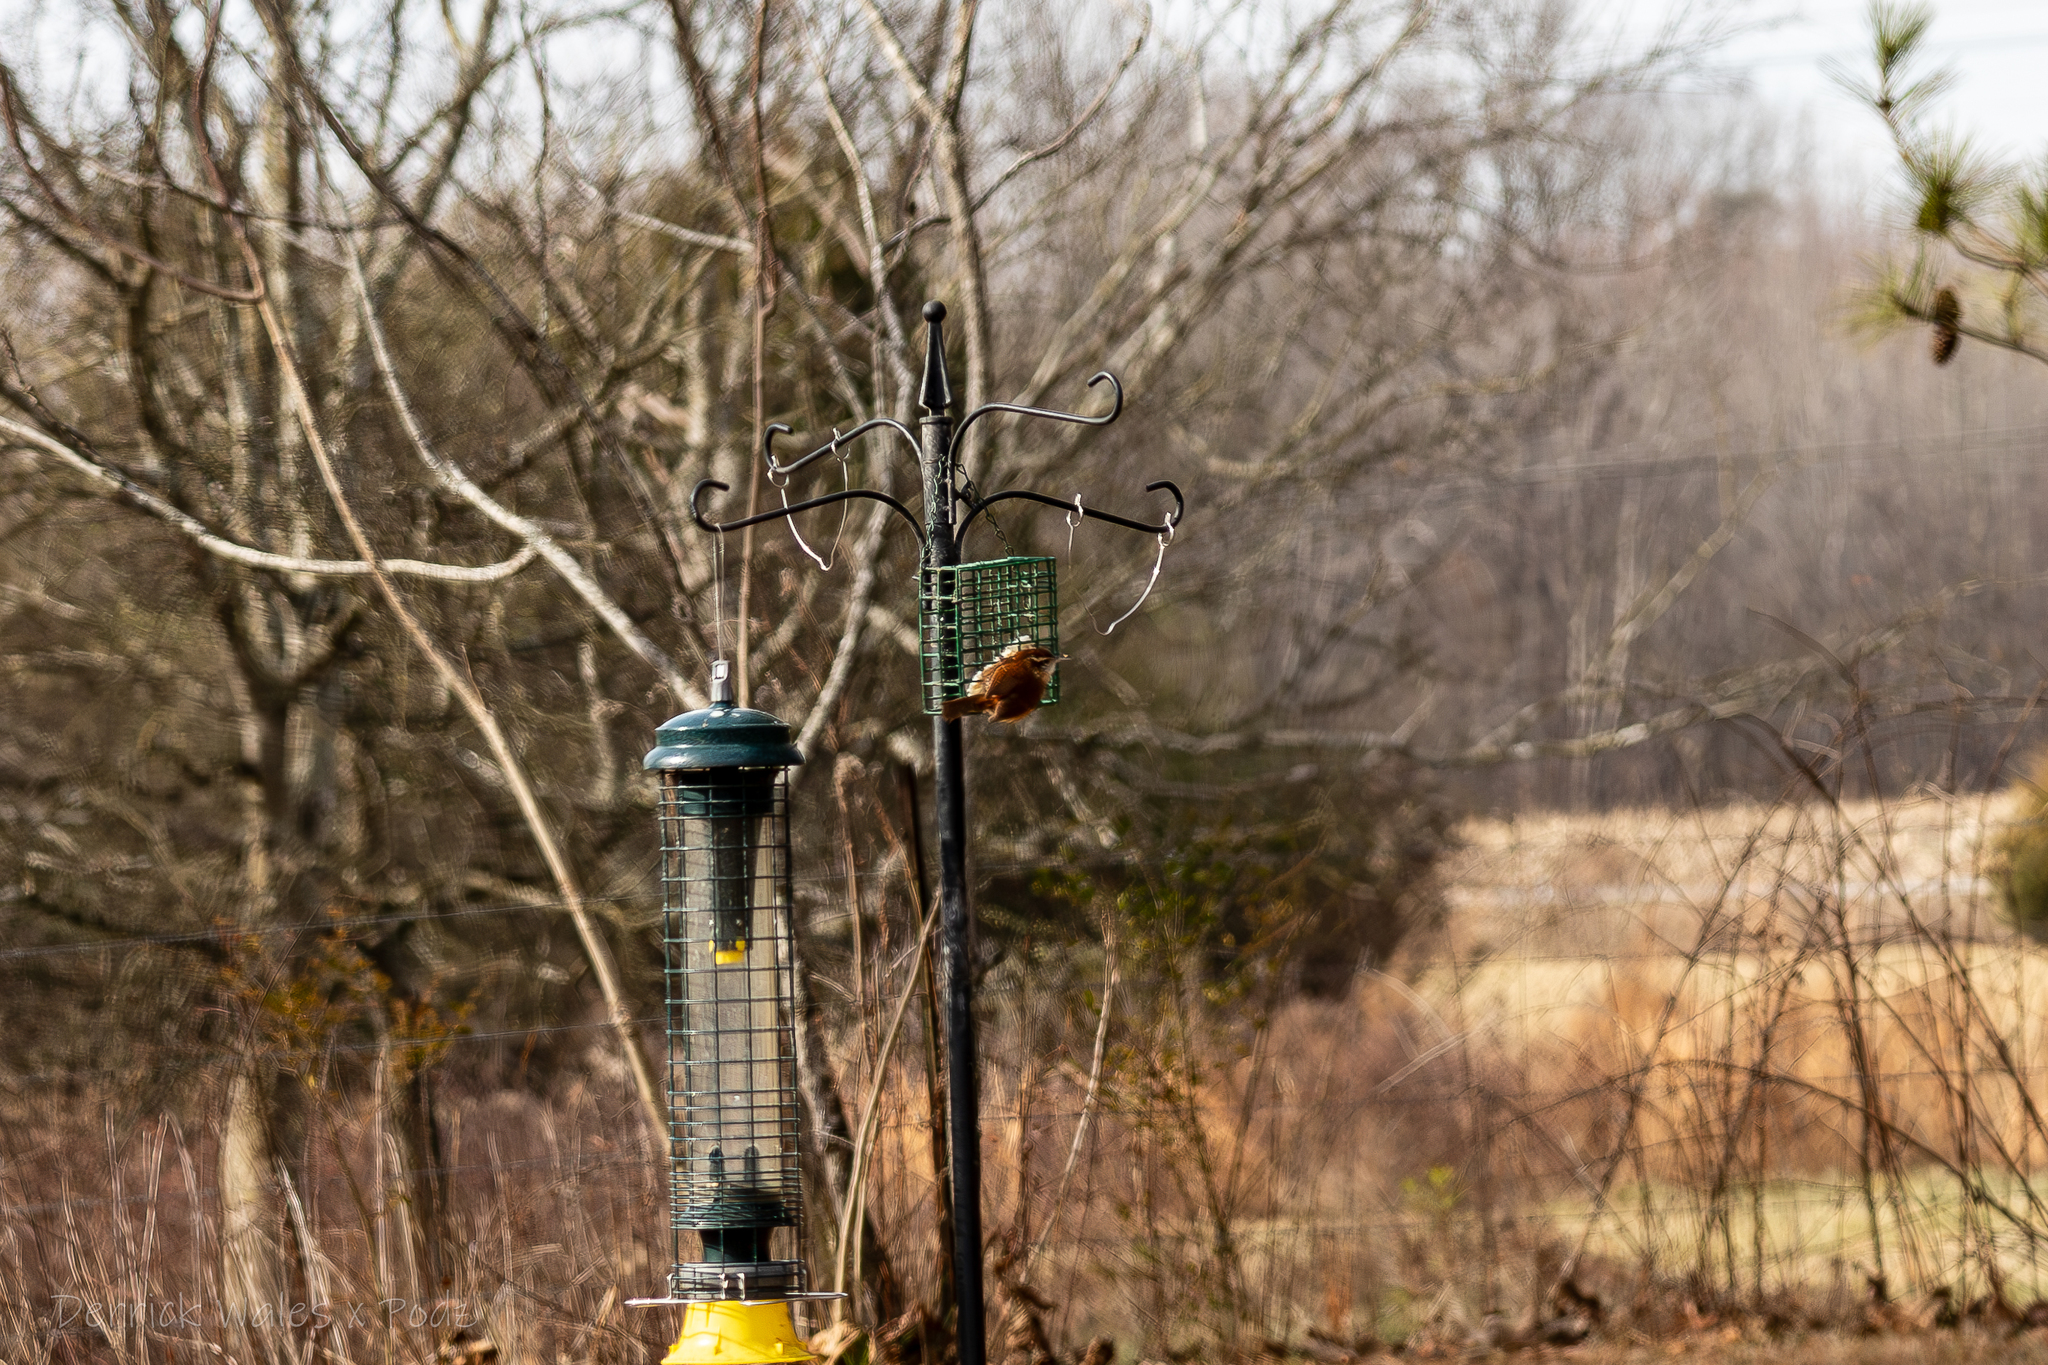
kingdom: Animalia
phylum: Chordata
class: Aves
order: Passeriformes
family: Troglodytidae
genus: Thryothorus
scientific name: Thryothorus ludovicianus
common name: Carolina wren
